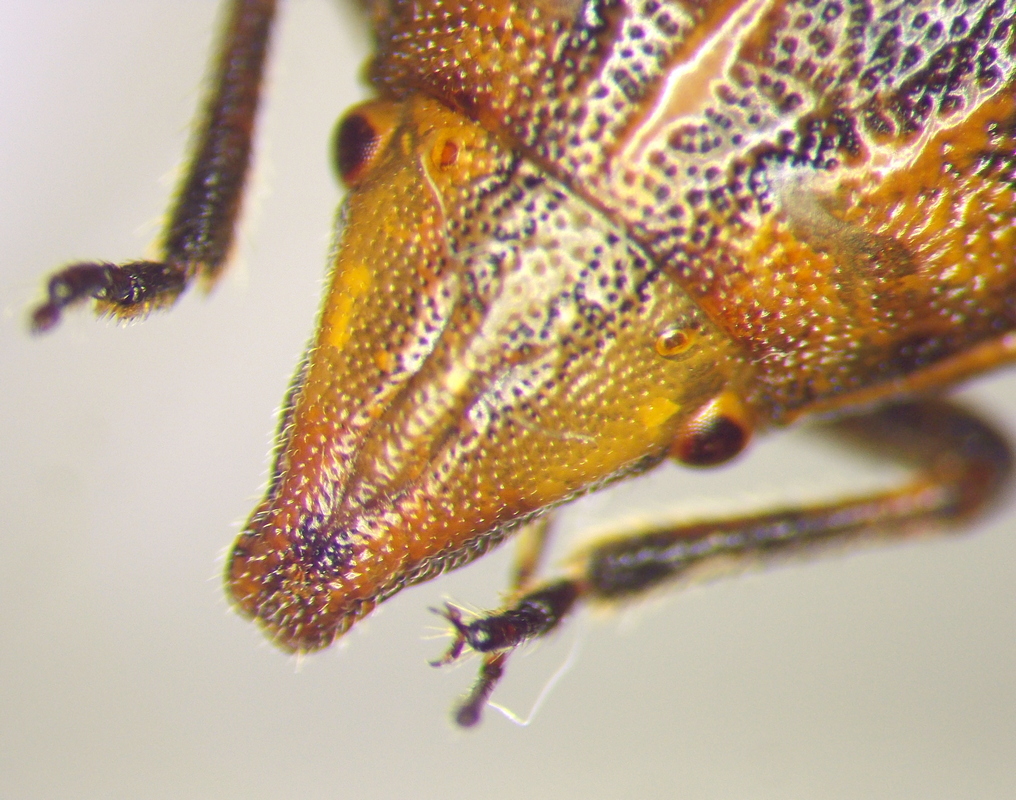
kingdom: Animalia
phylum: Arthropoda
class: Insecta
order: Hemiptera
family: Pentatomidae
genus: Aelia
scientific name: Aelia rostrata
